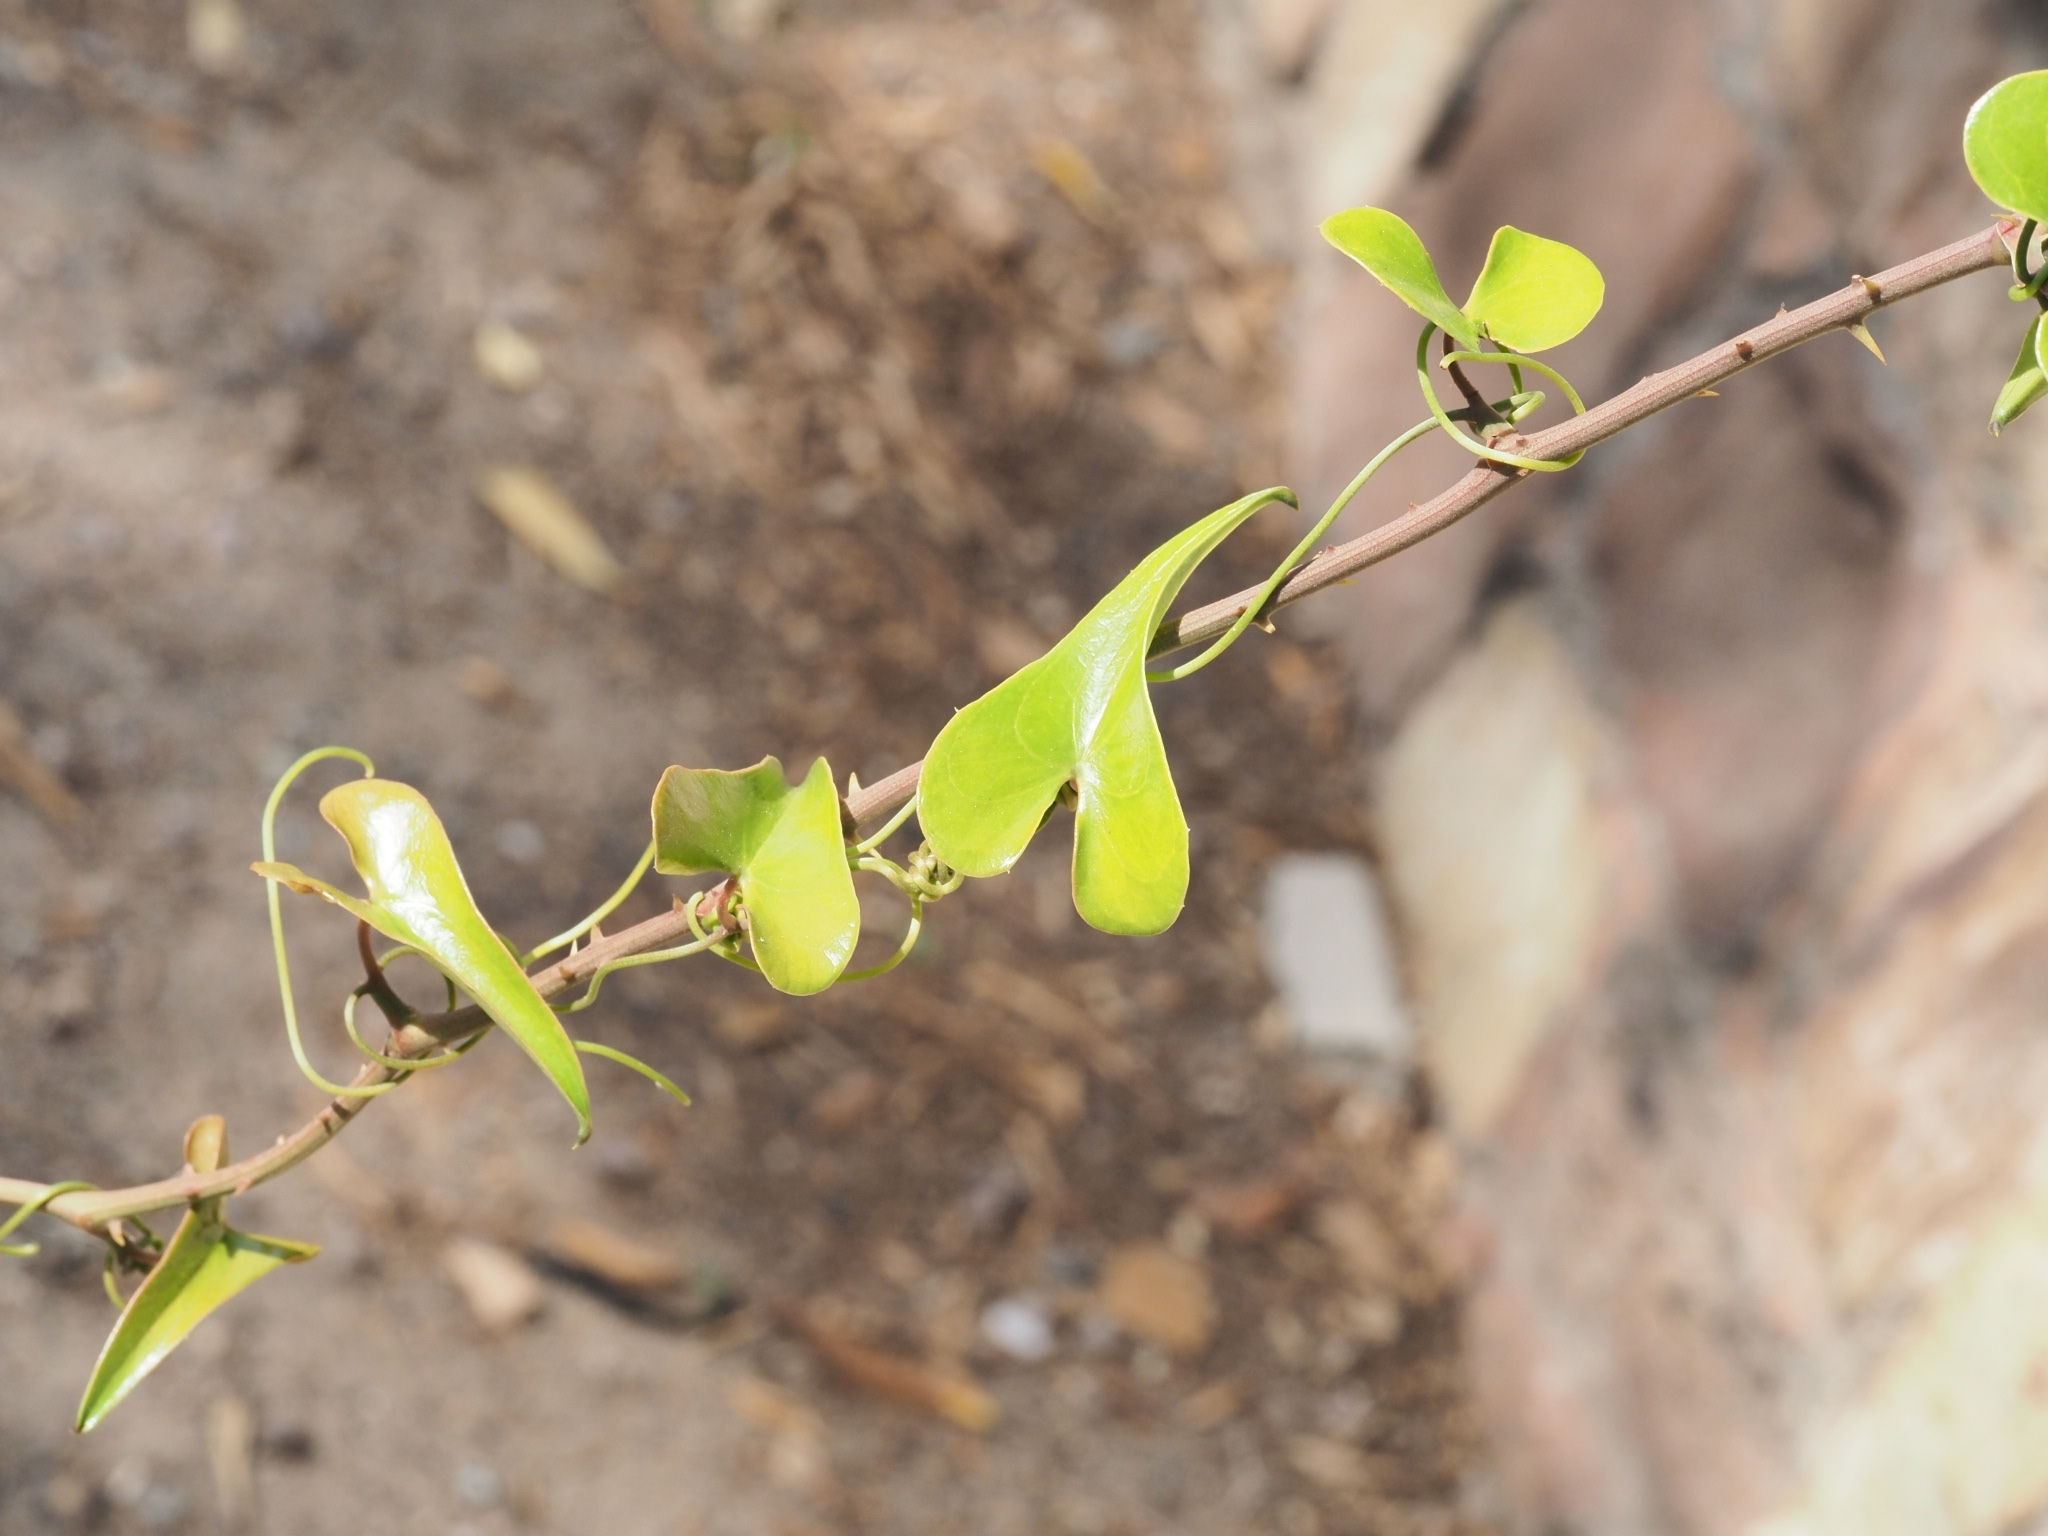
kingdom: Plantae
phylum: Tracheophyta
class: Liliopsida
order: Liliales
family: Smilacaceae
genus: Smilax
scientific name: Smilax aspera
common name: Common smilax
